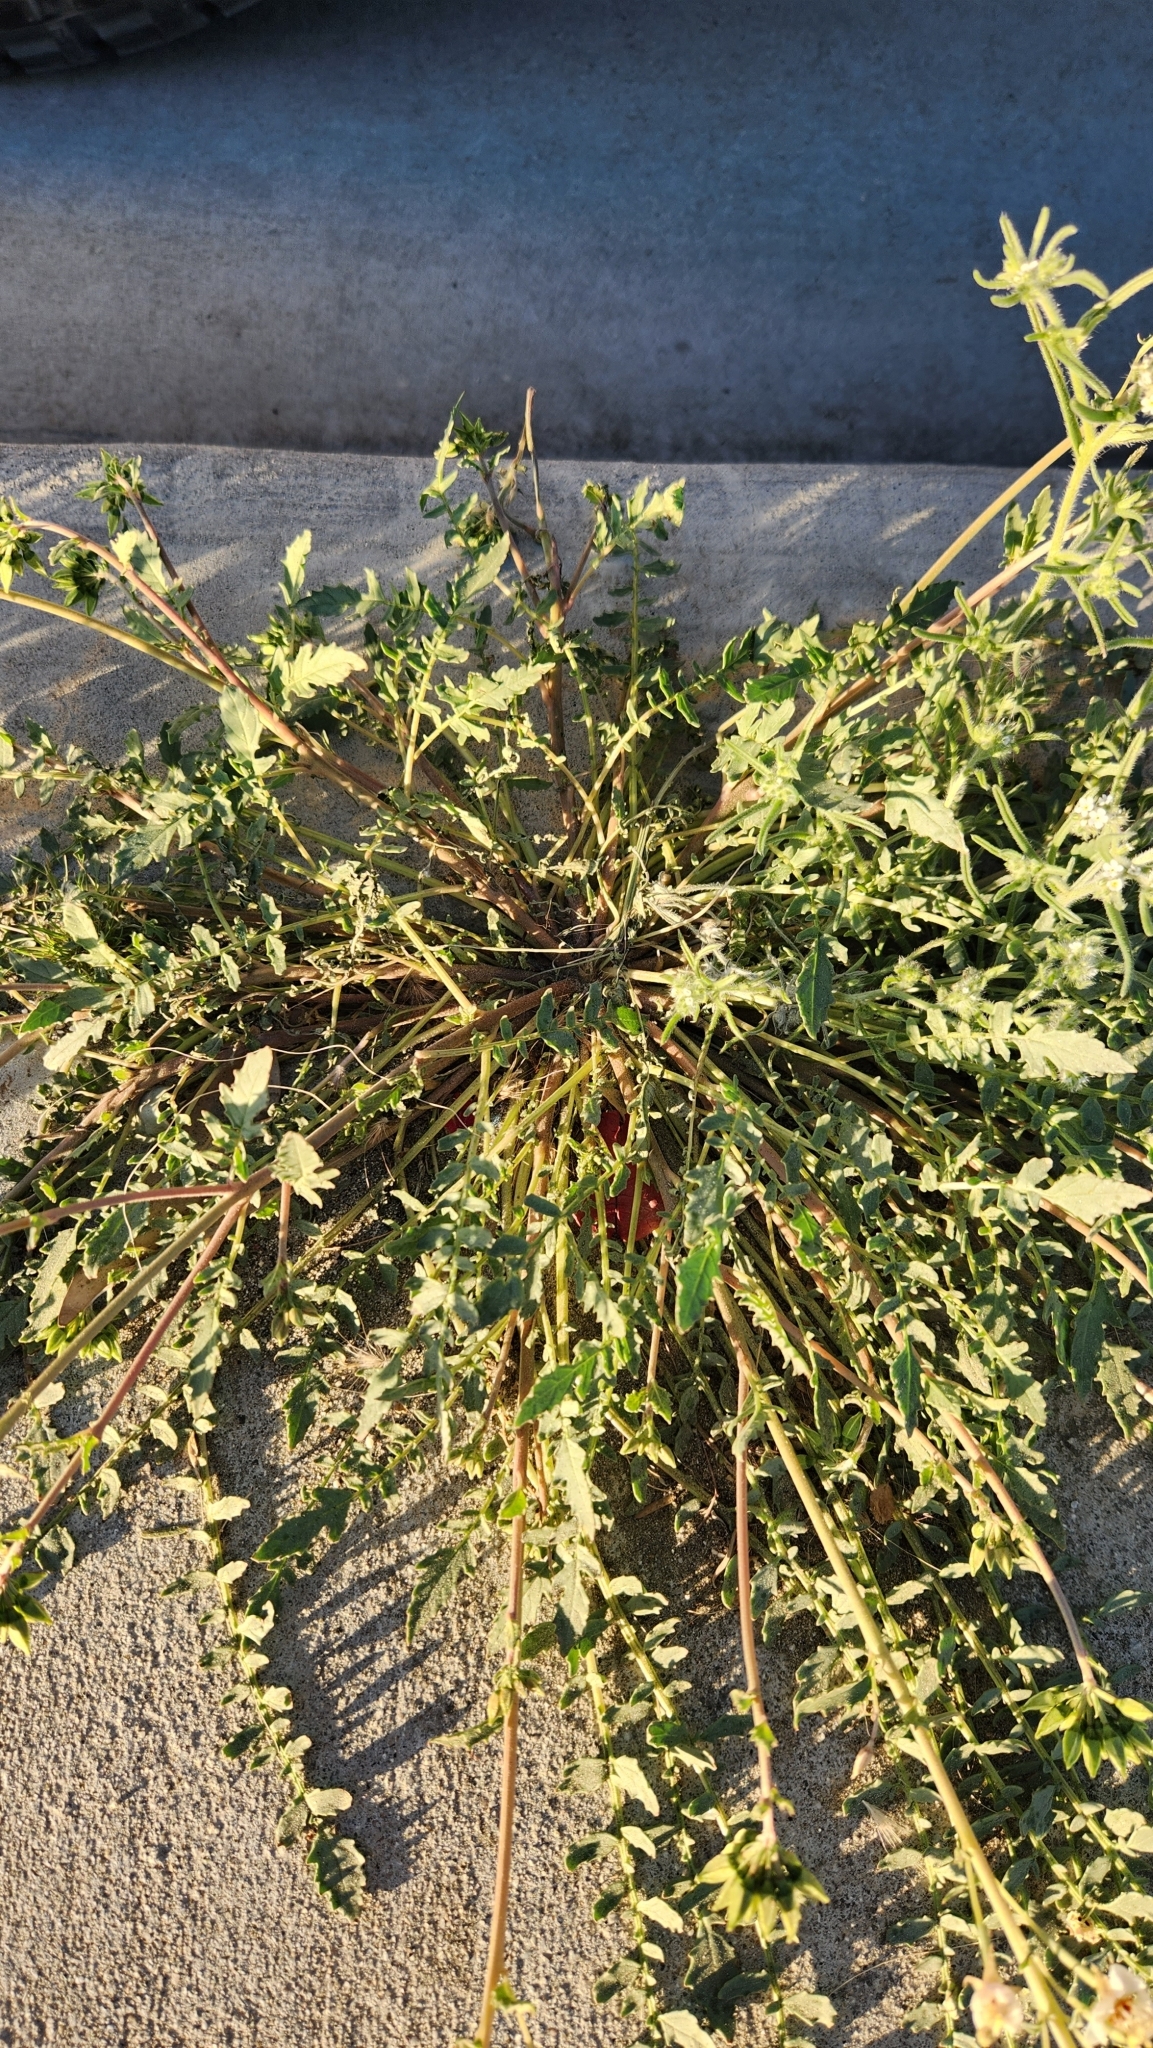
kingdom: Plantae
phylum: Tracheophyta
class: Magnoliopsida
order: Myrtales
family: Onagraceae
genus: Chylismia
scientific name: Chylismia claviformis
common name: Browneyes
